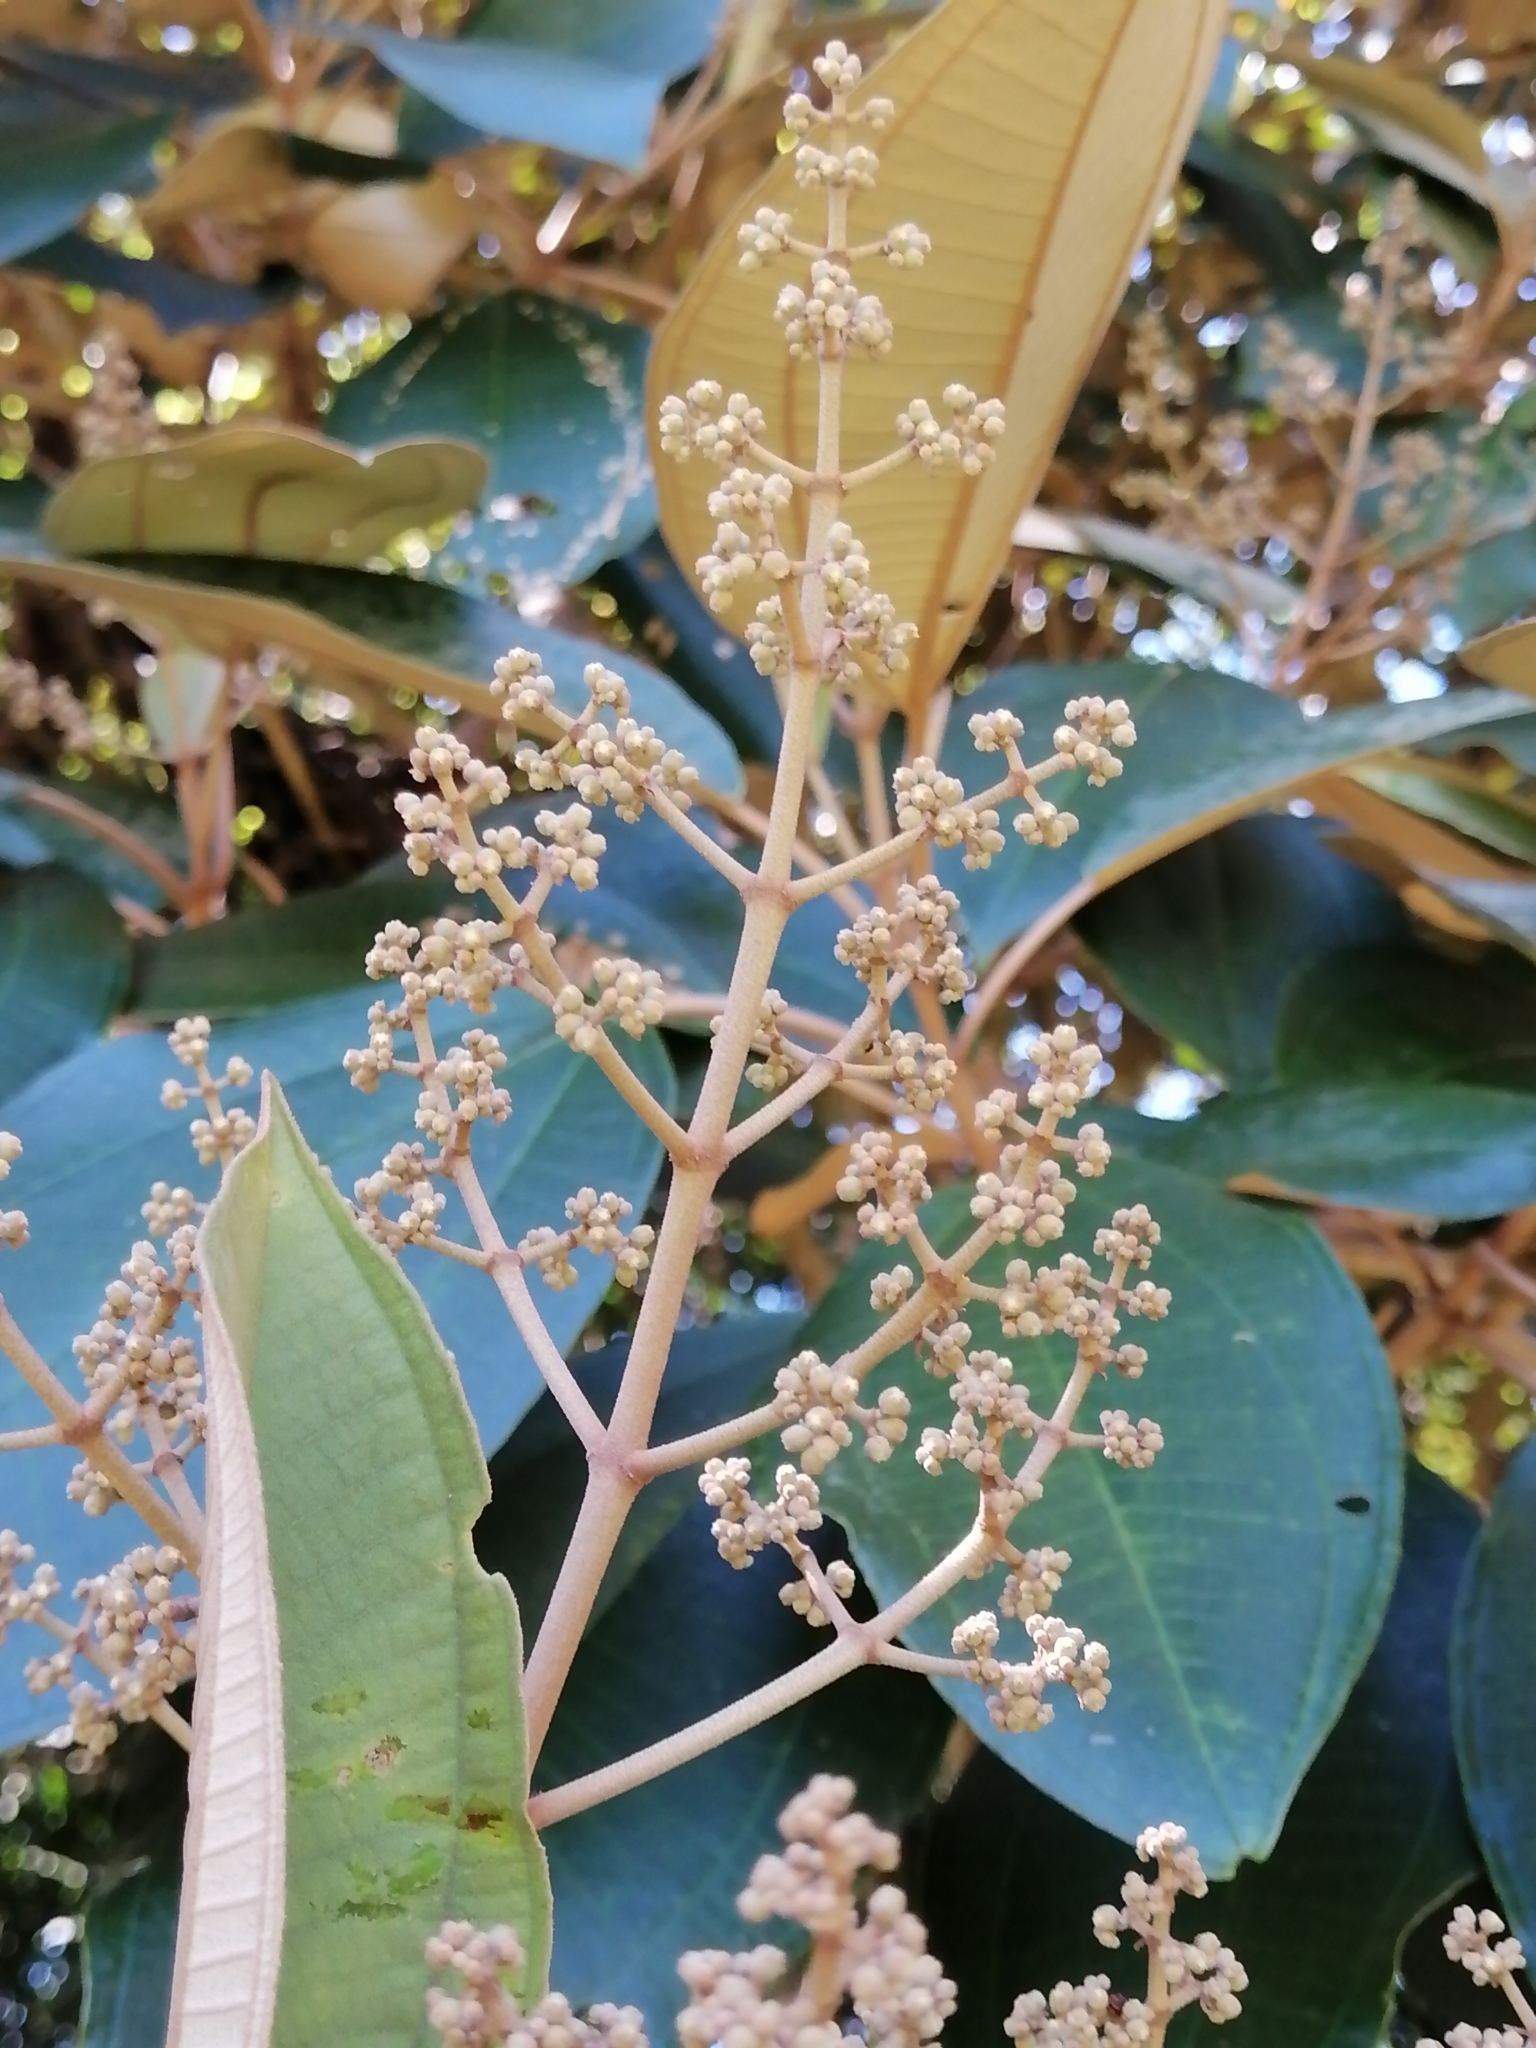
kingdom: Plantae
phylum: Tracheophyta
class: Magnoliopsida
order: Myrtales
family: Melastomataceae
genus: Miconia
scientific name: Miconia argentea
